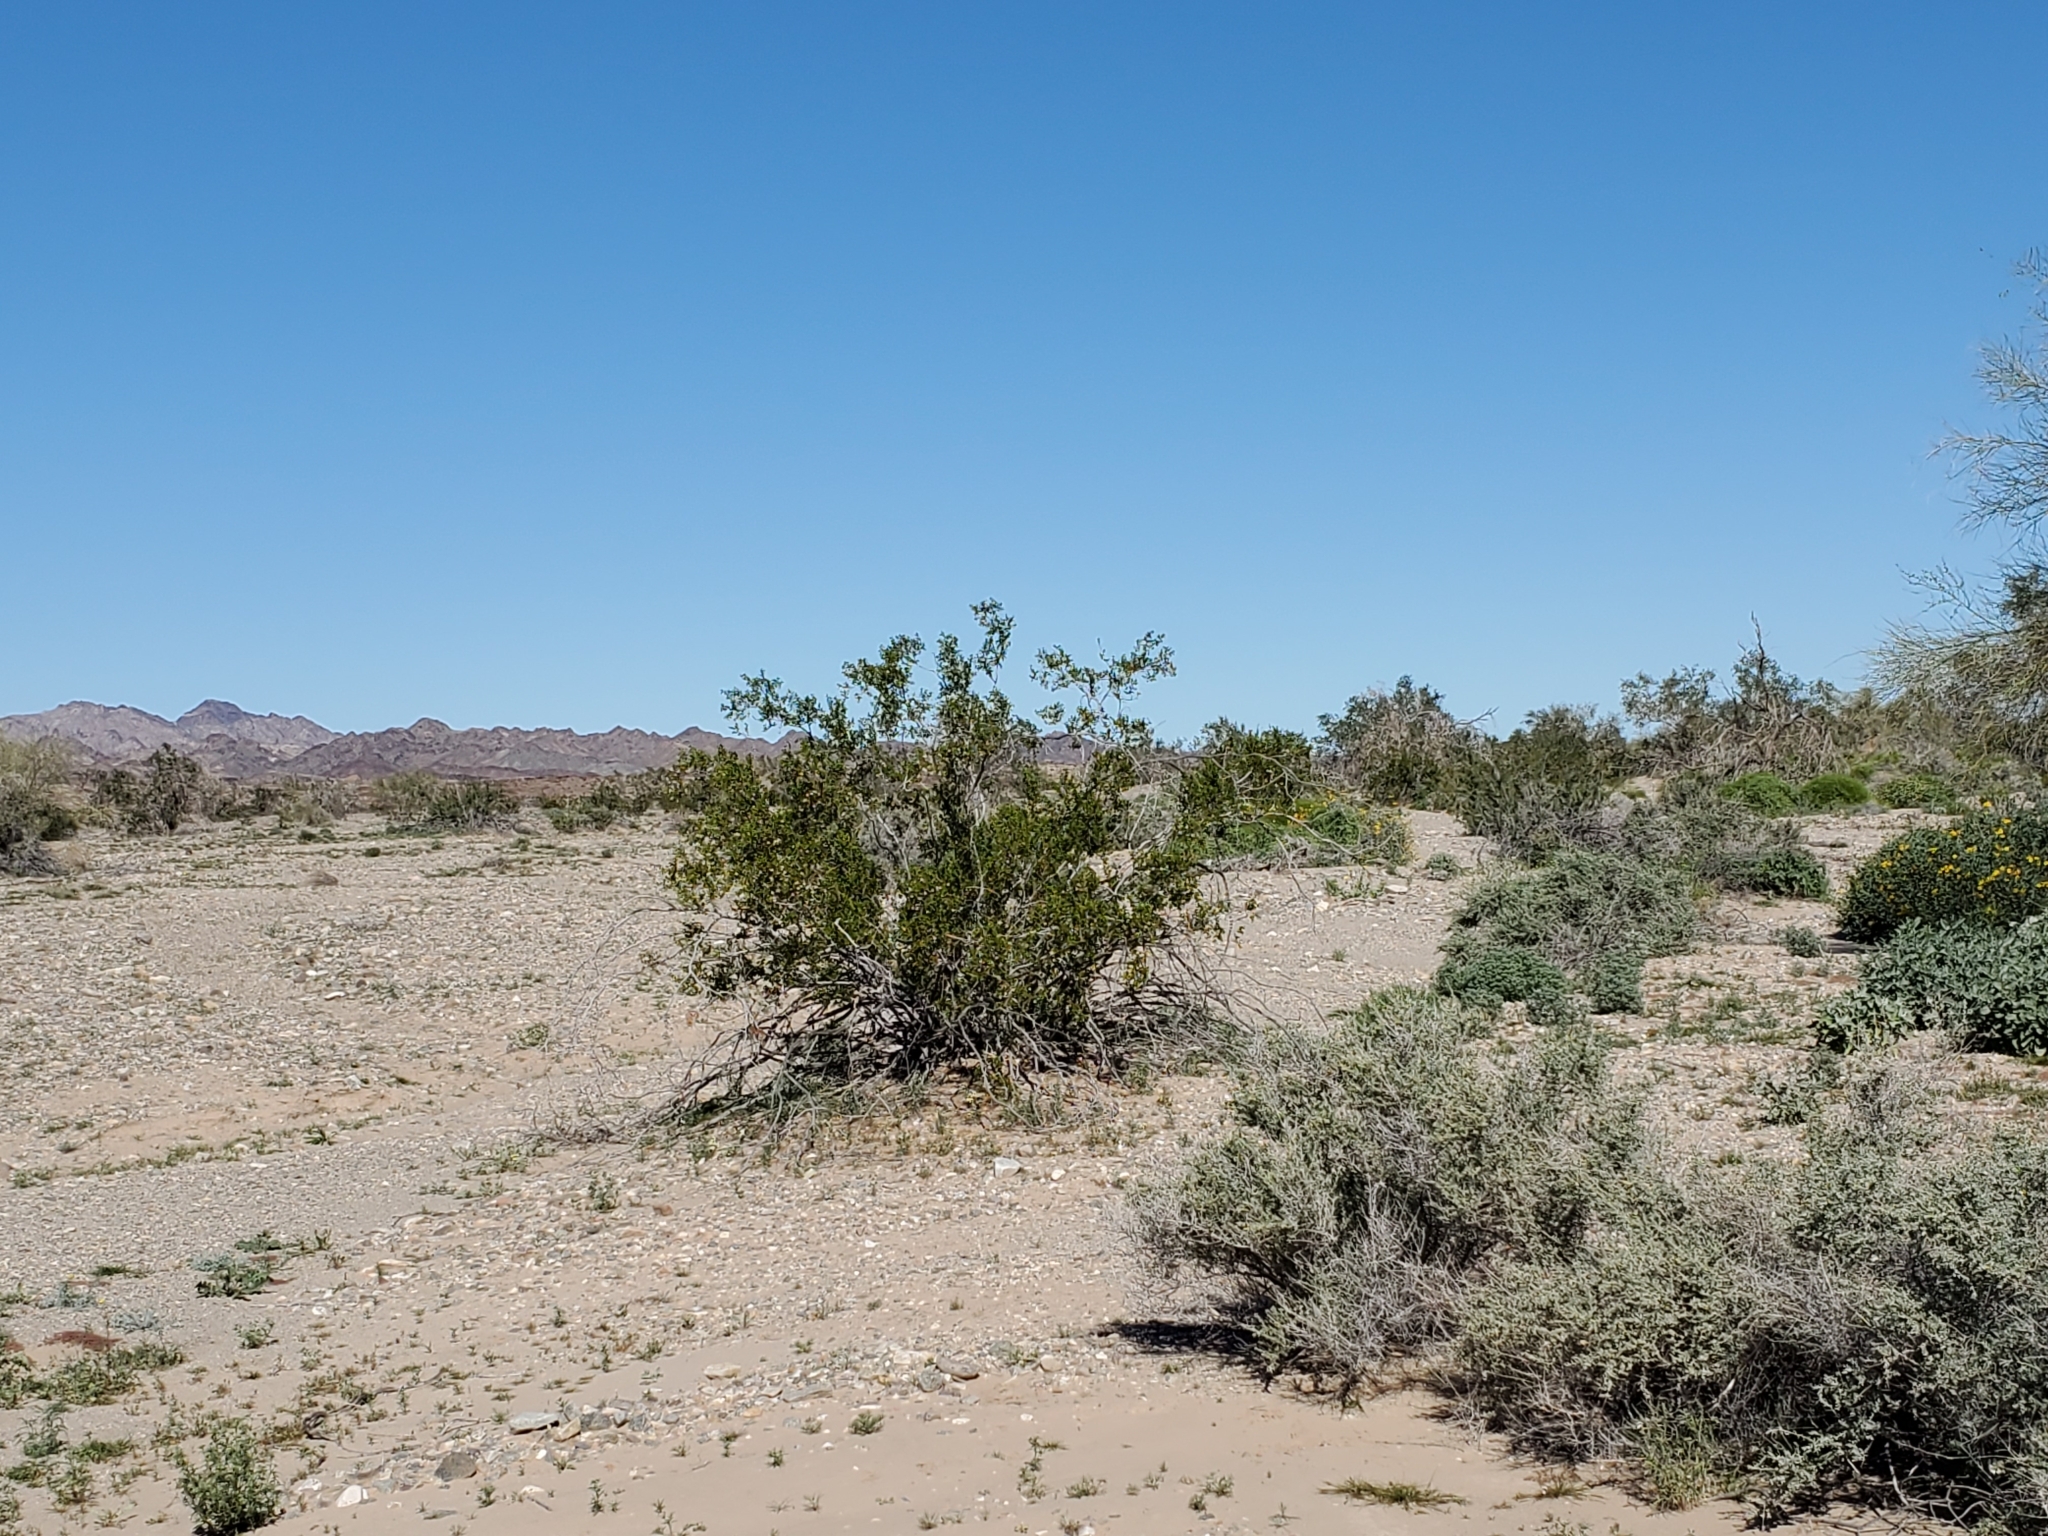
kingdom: Plantae
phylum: Tracheophyta
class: Magnoliopsida
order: Zygophyllales
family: Zygophyllaceae
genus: Larrea
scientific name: Larrea tridentata
